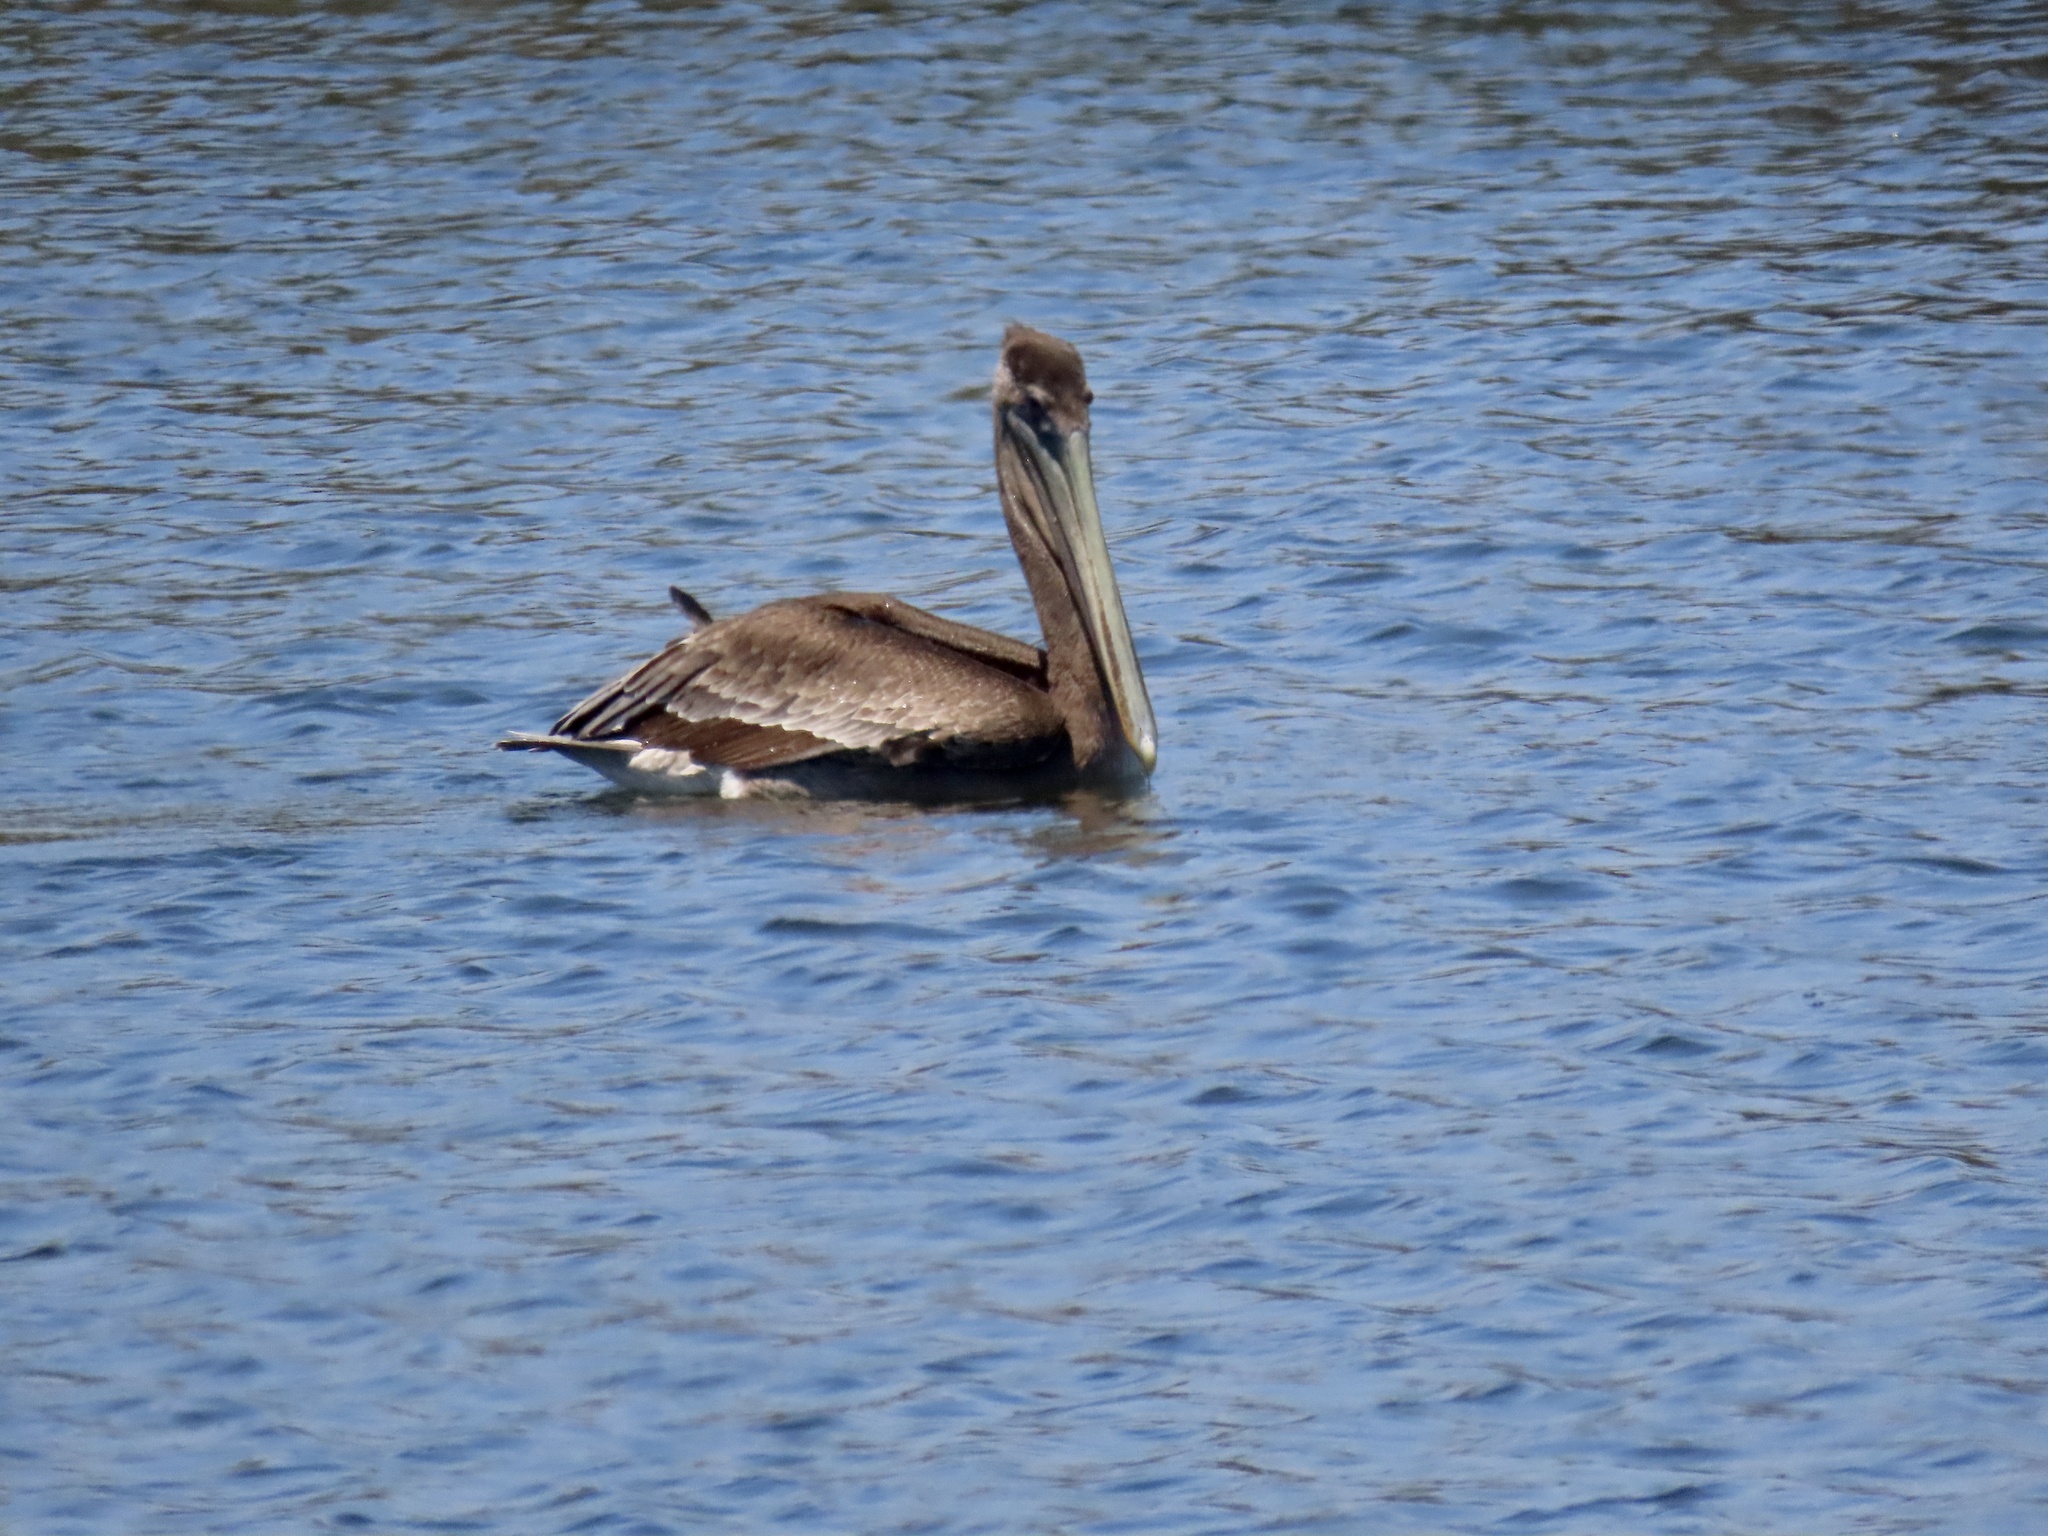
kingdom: Animalia
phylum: Chordata
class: Aves
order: Pelecaniformes
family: Pelecanidae
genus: Pelecanus
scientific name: Pelecanus occidentalis
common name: Brown pelican
